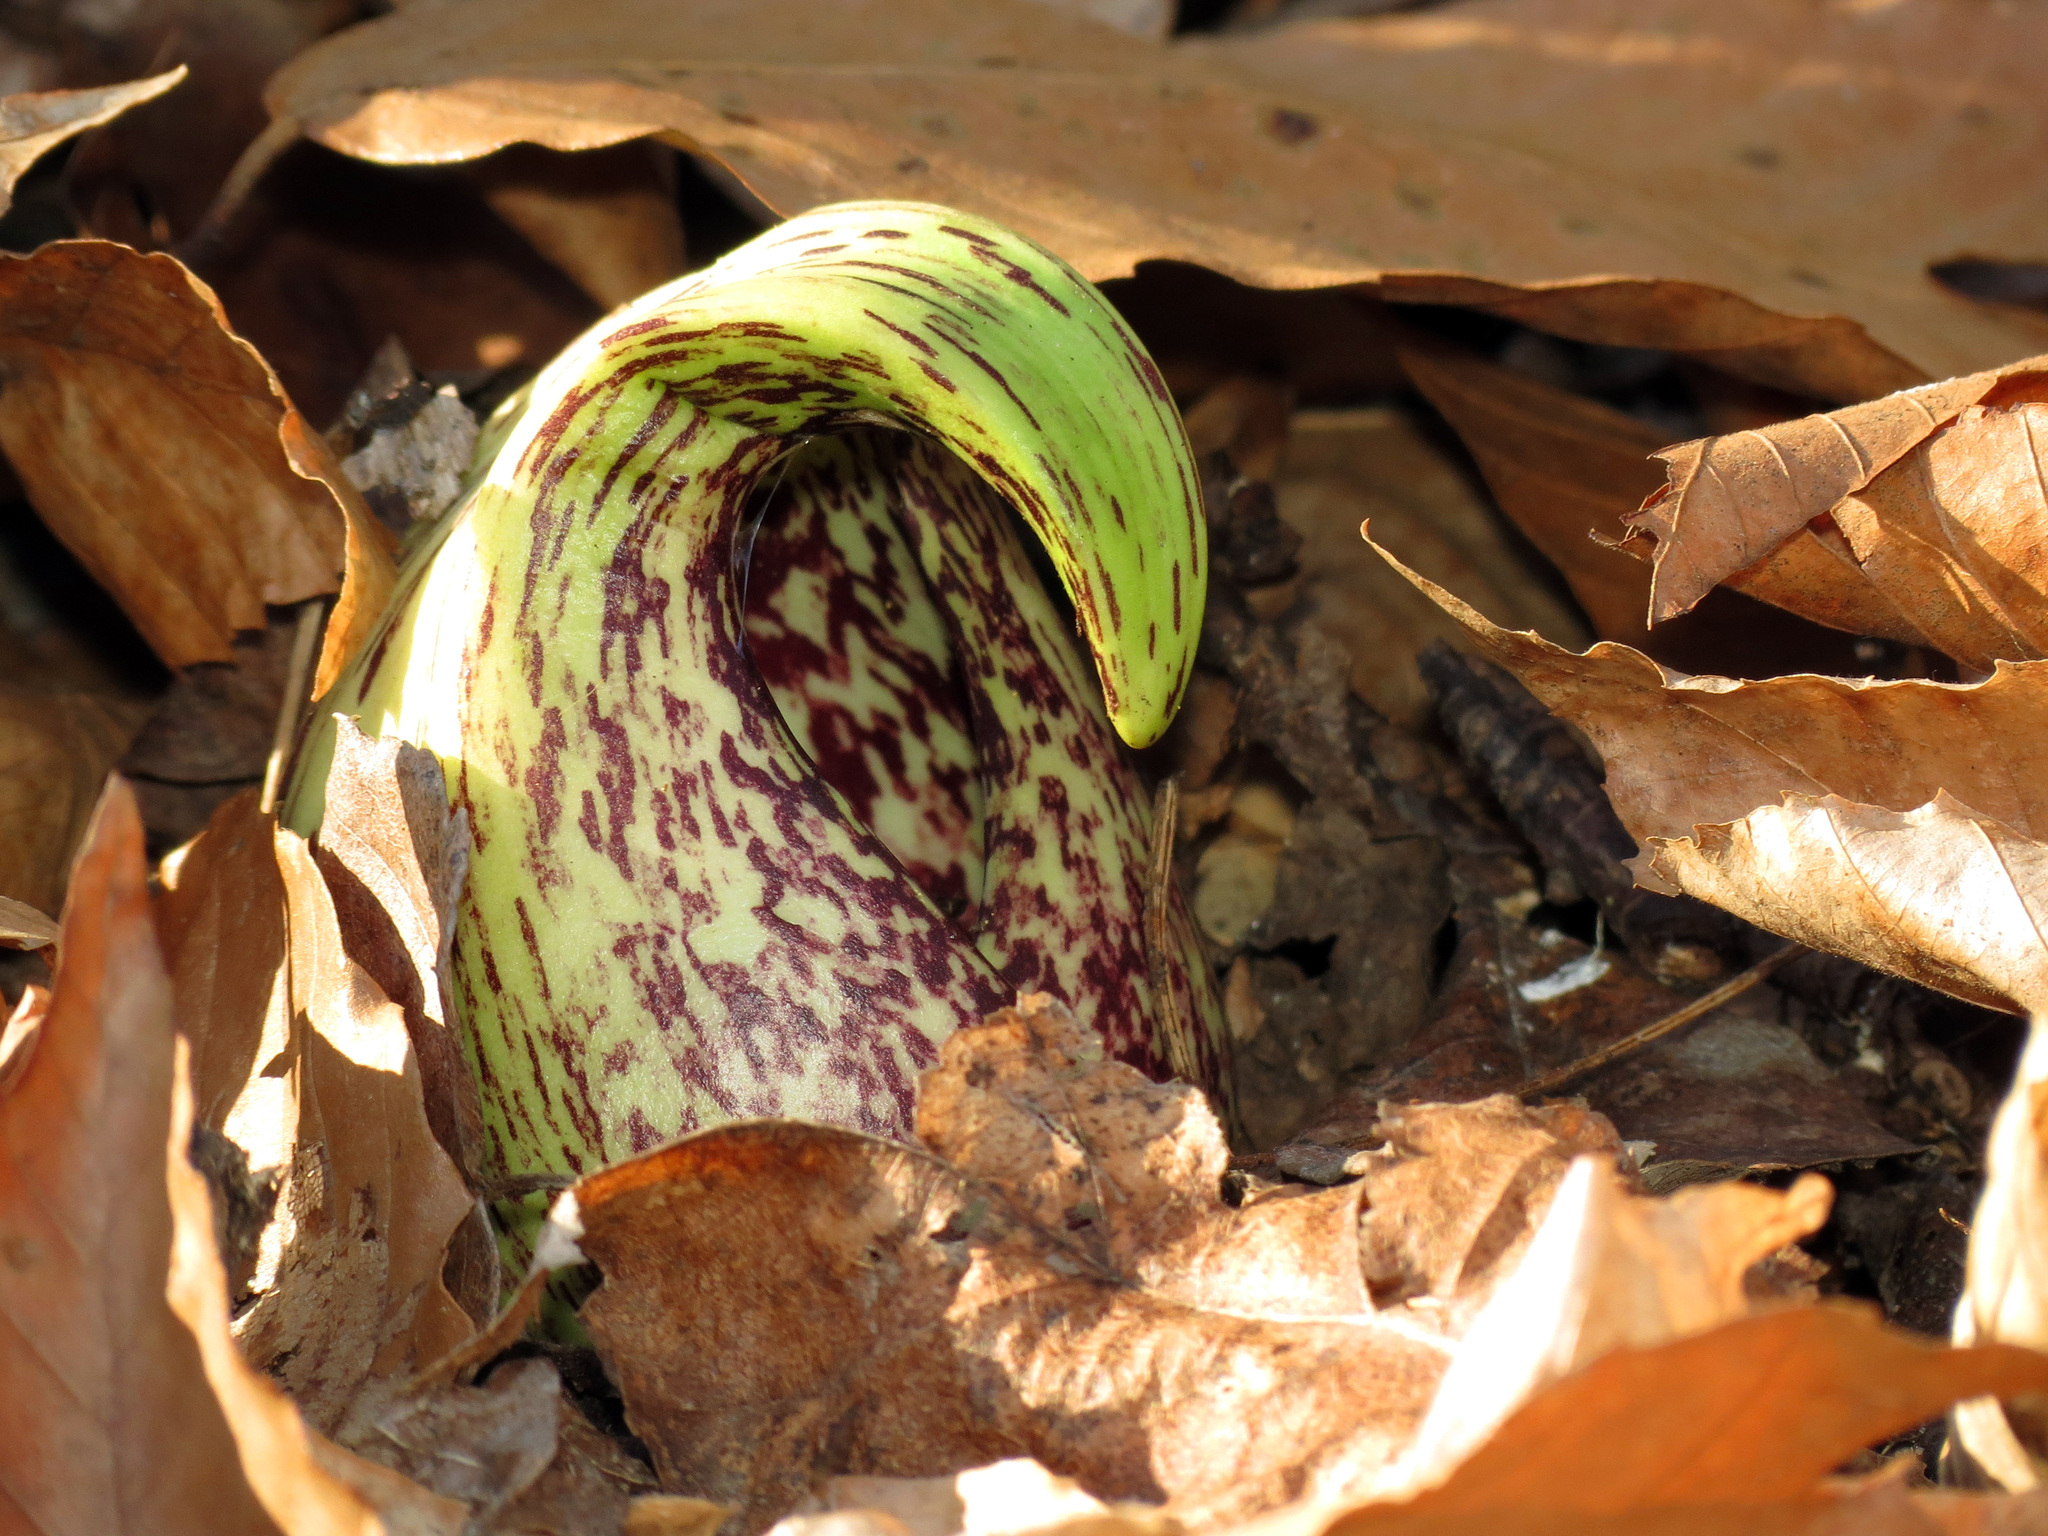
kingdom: Plantae
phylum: Tracheophyta
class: Liliopsida
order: Alismatales
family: Araceae
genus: Symplocarpus
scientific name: Symplocarpus foetidus
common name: Eastern skunk cabbage
